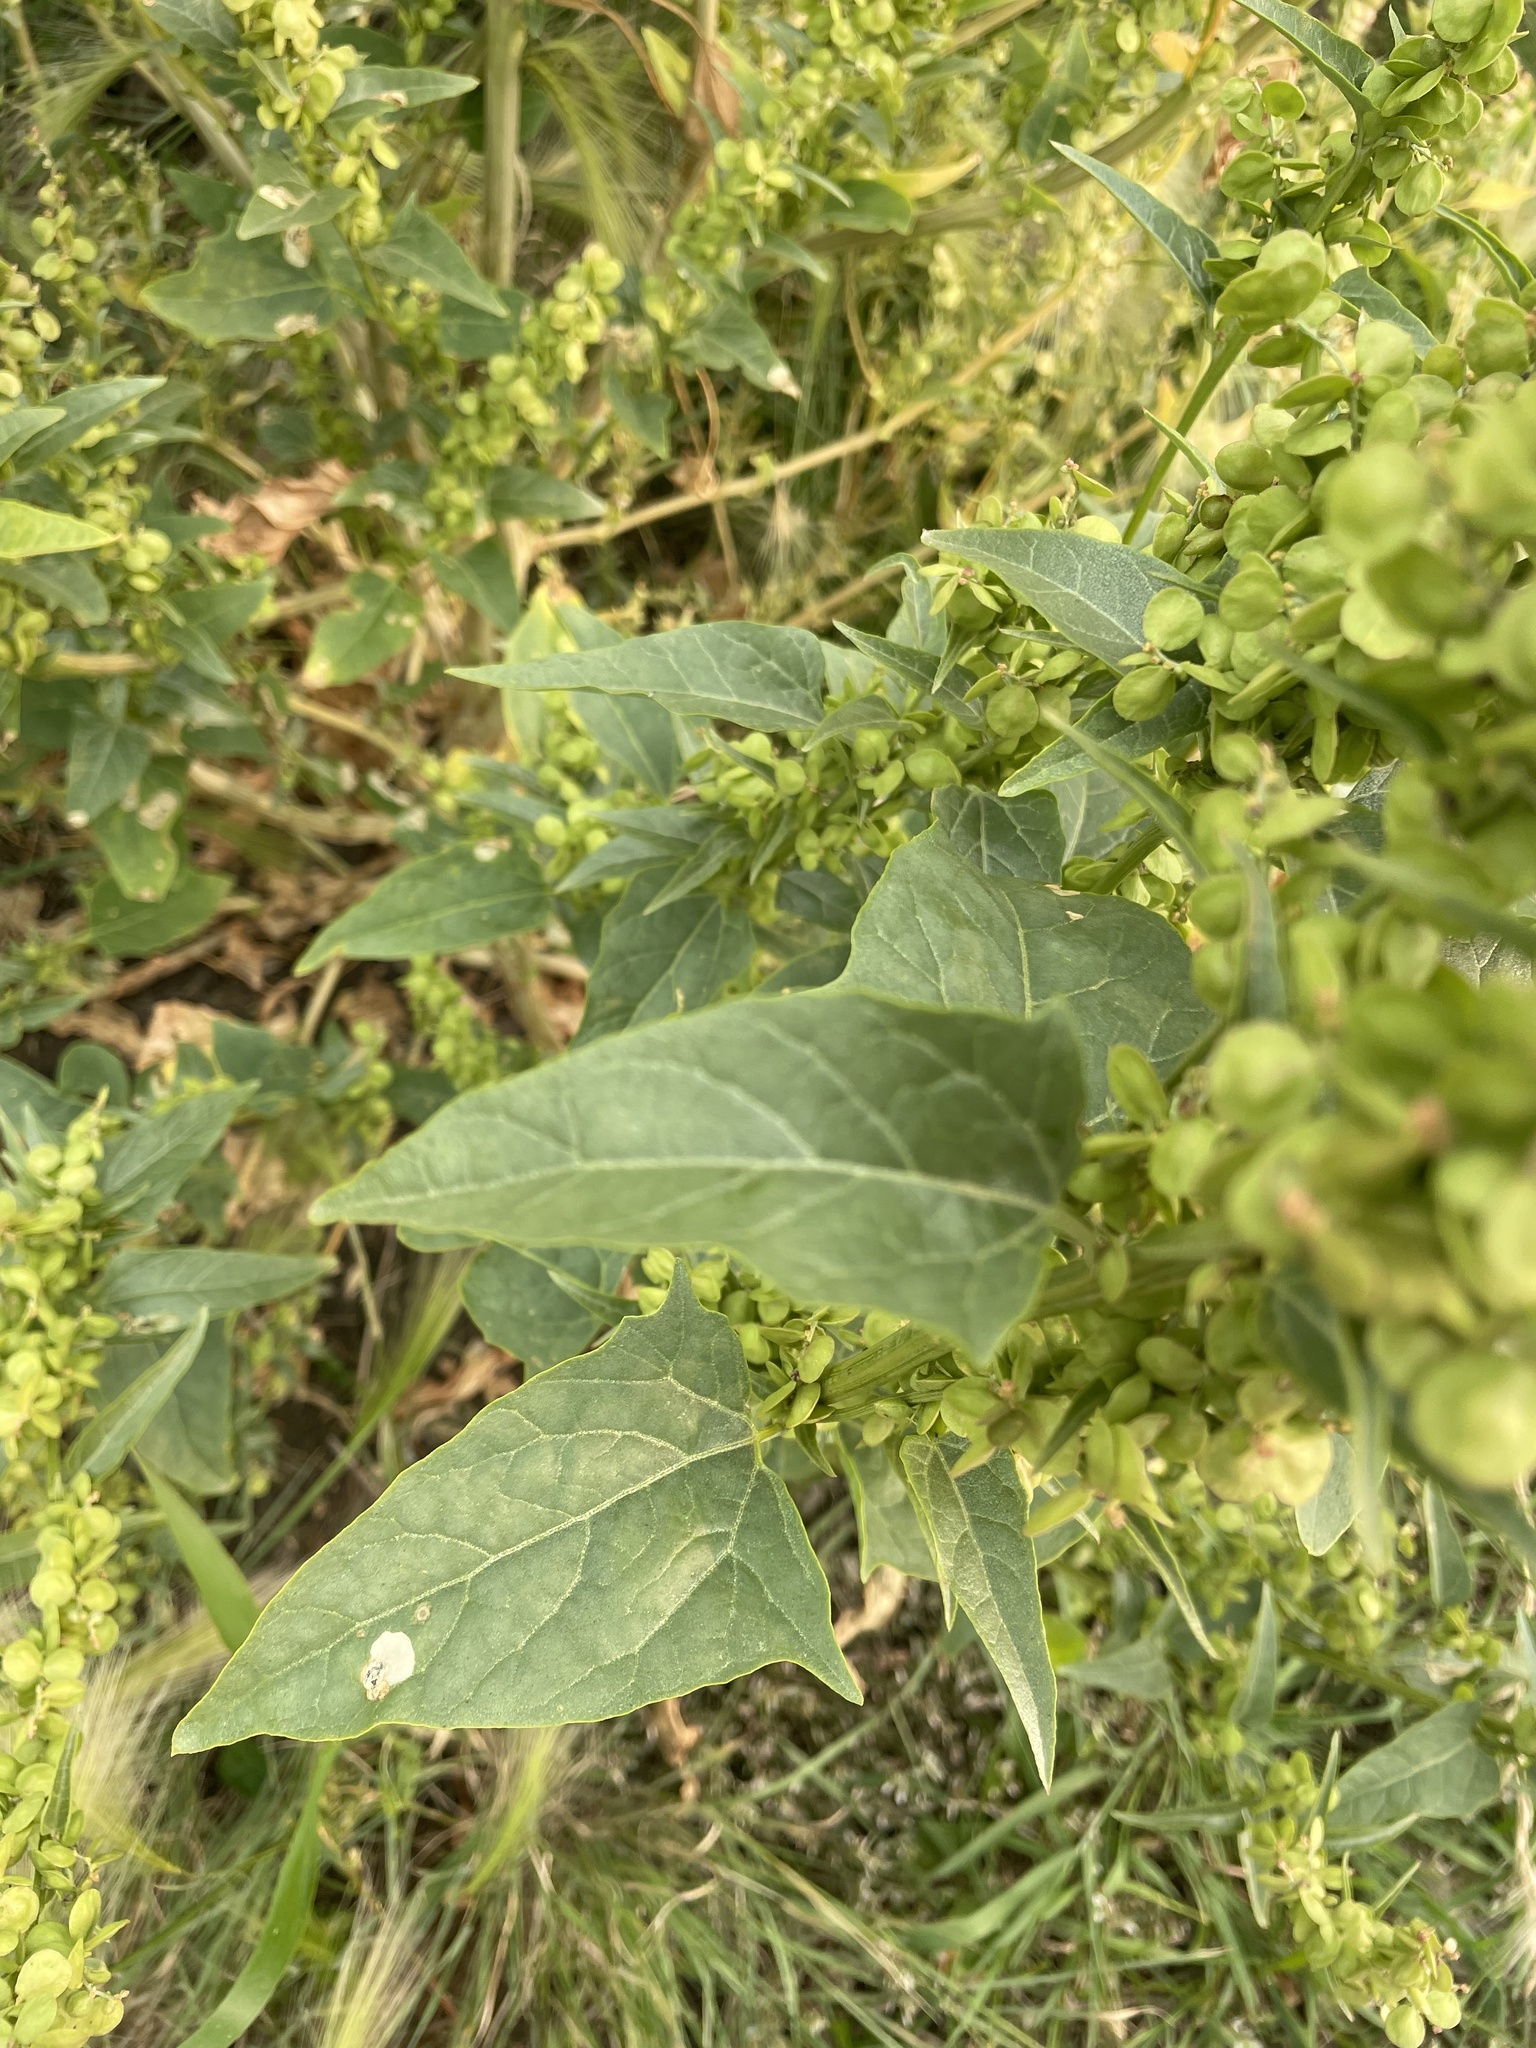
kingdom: Plantae
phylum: Tracheophyta
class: Magnoliopsida
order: Caryophyllales
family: Amaranthaceae
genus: Atriplex
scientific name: Atriplex hortensis
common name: Garden orache
